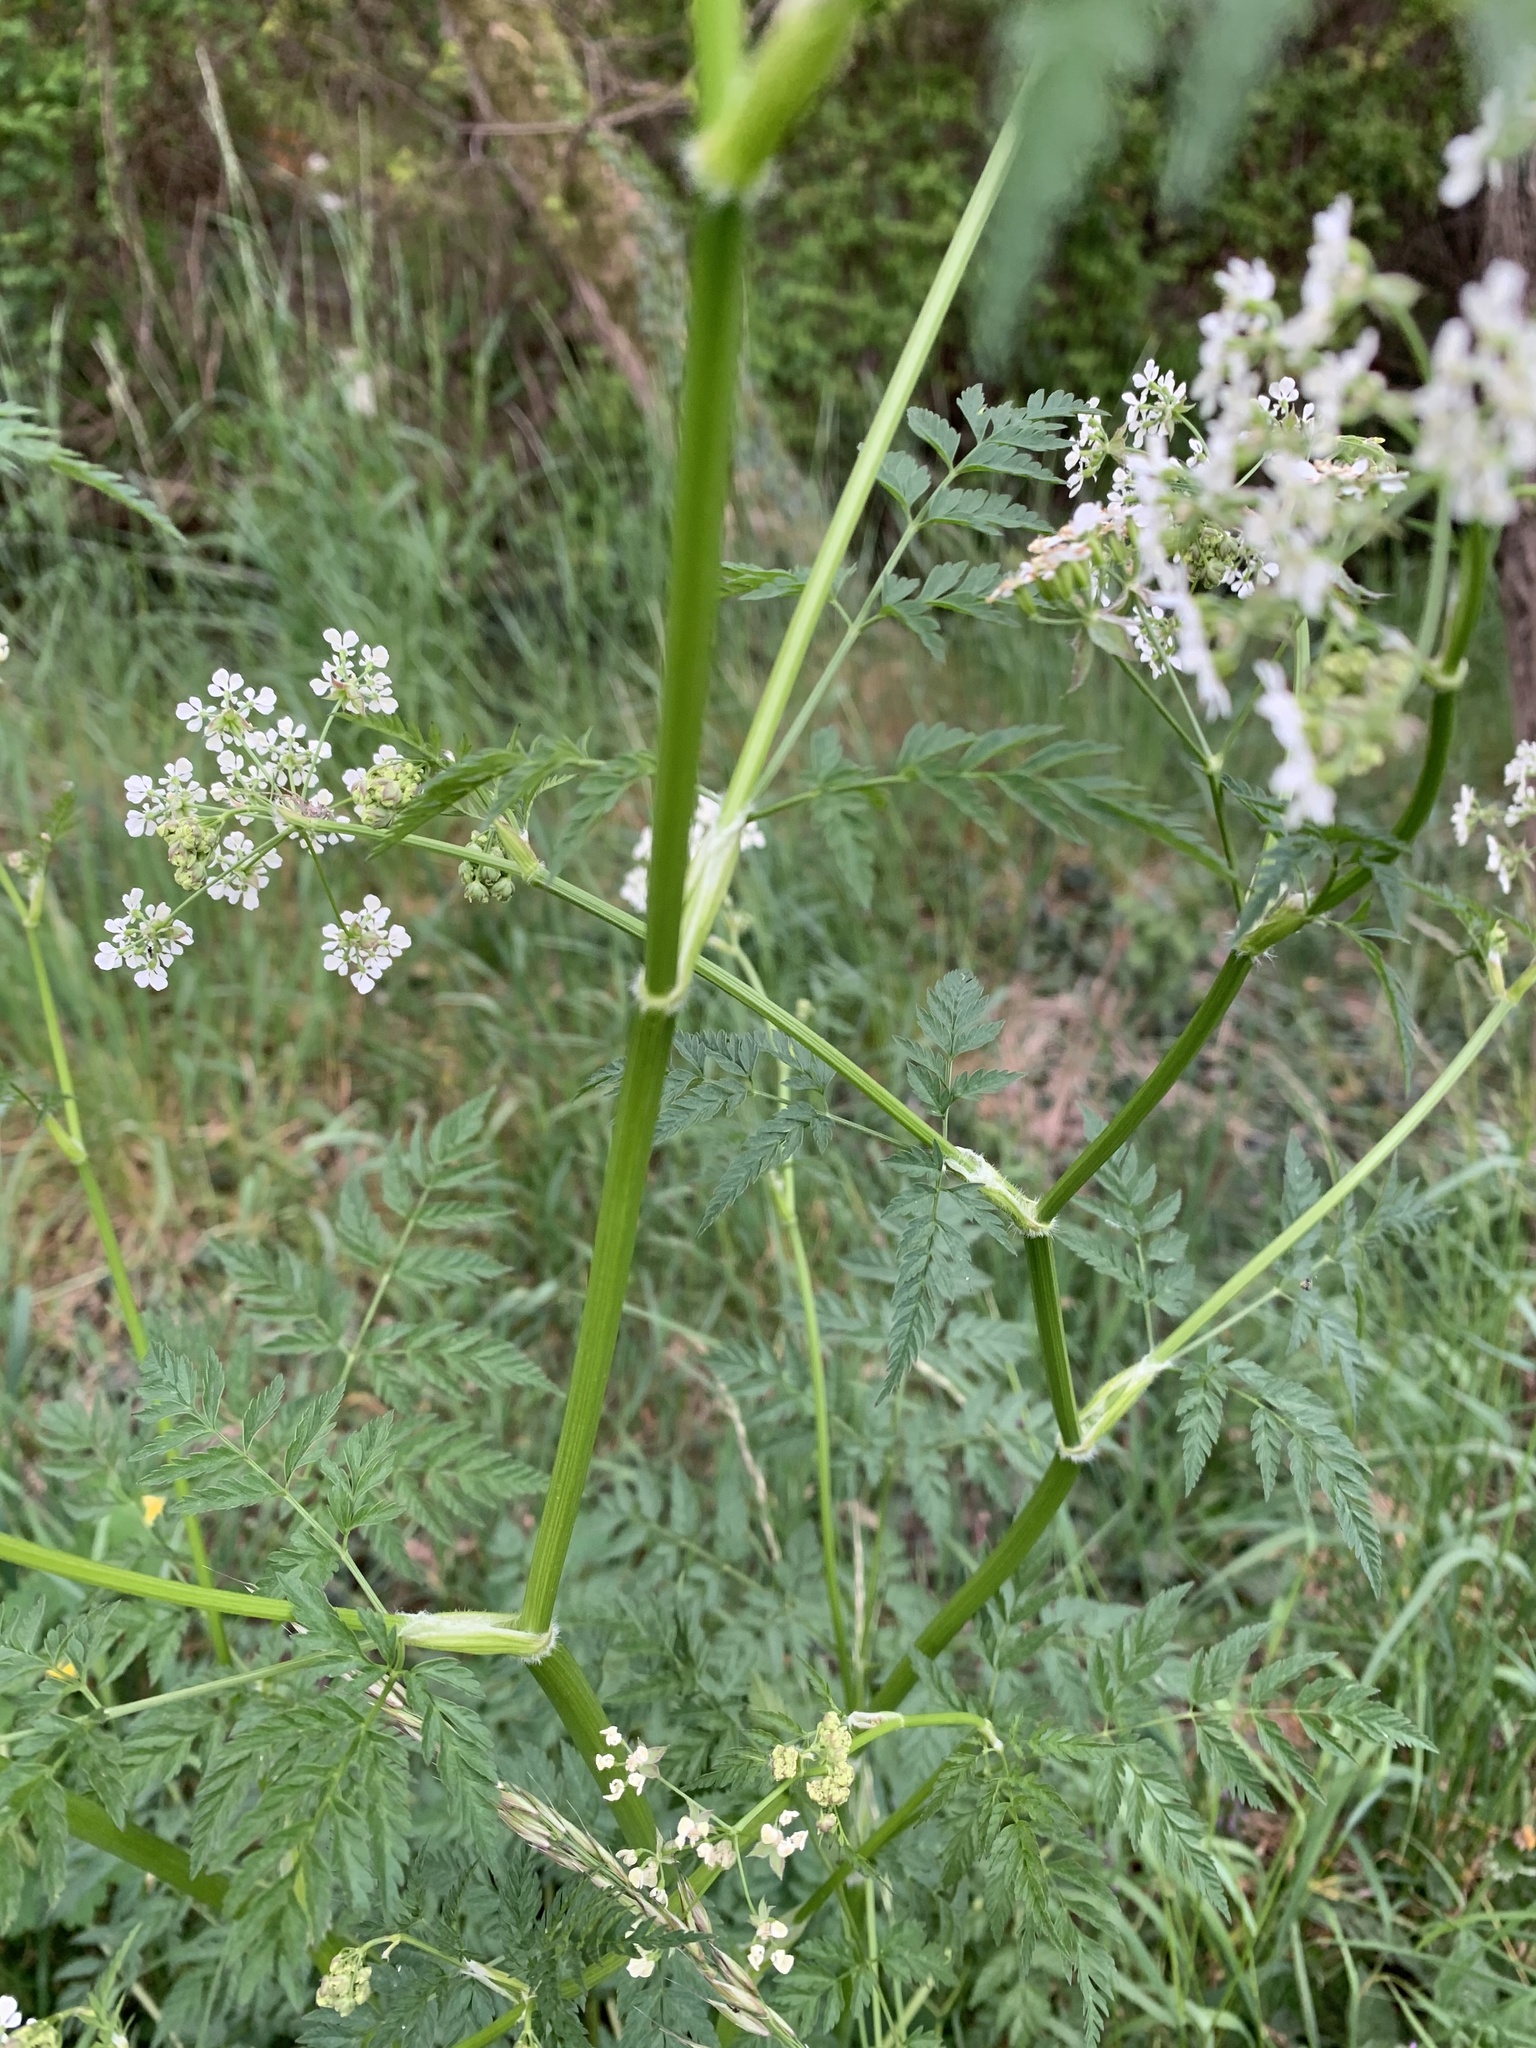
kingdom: Plantae
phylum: Tracheophyta
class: Magnoliopsida
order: Apiales
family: Apiaceae
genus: Anthriscus
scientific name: Anthriscus sylvestris
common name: Cow parsley
